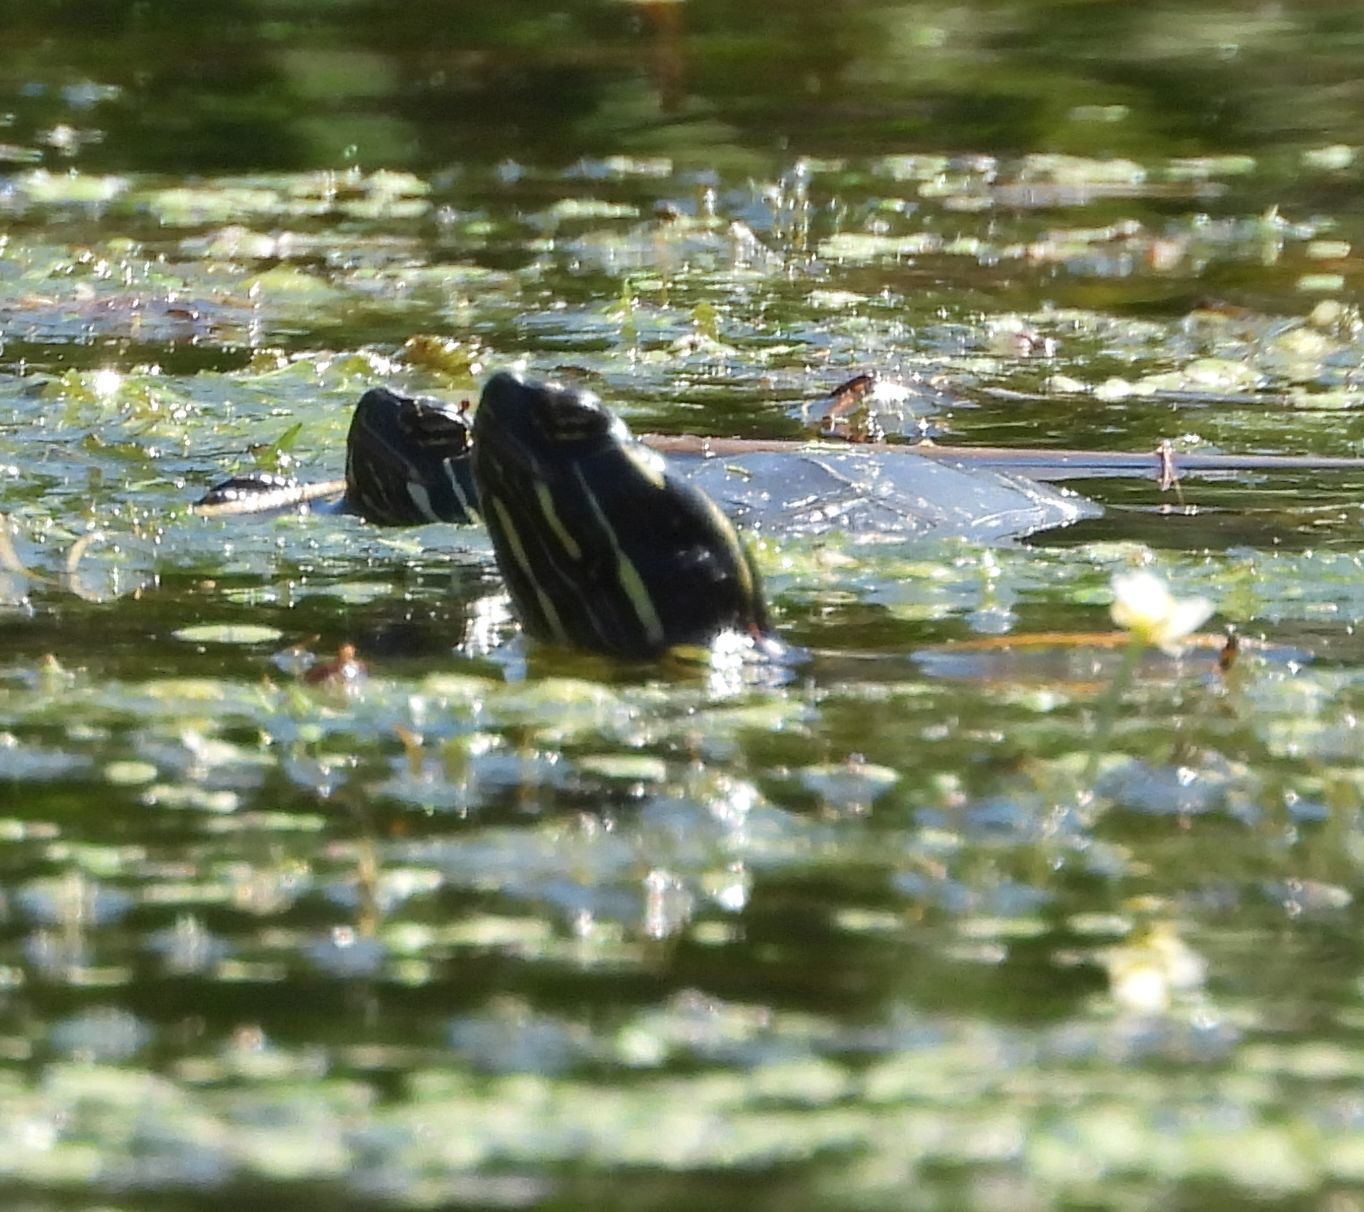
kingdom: Animalia
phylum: Chordata
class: Testudines
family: Emydidae
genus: Chrysemys
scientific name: Chrysemys picta
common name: Painted turtle
